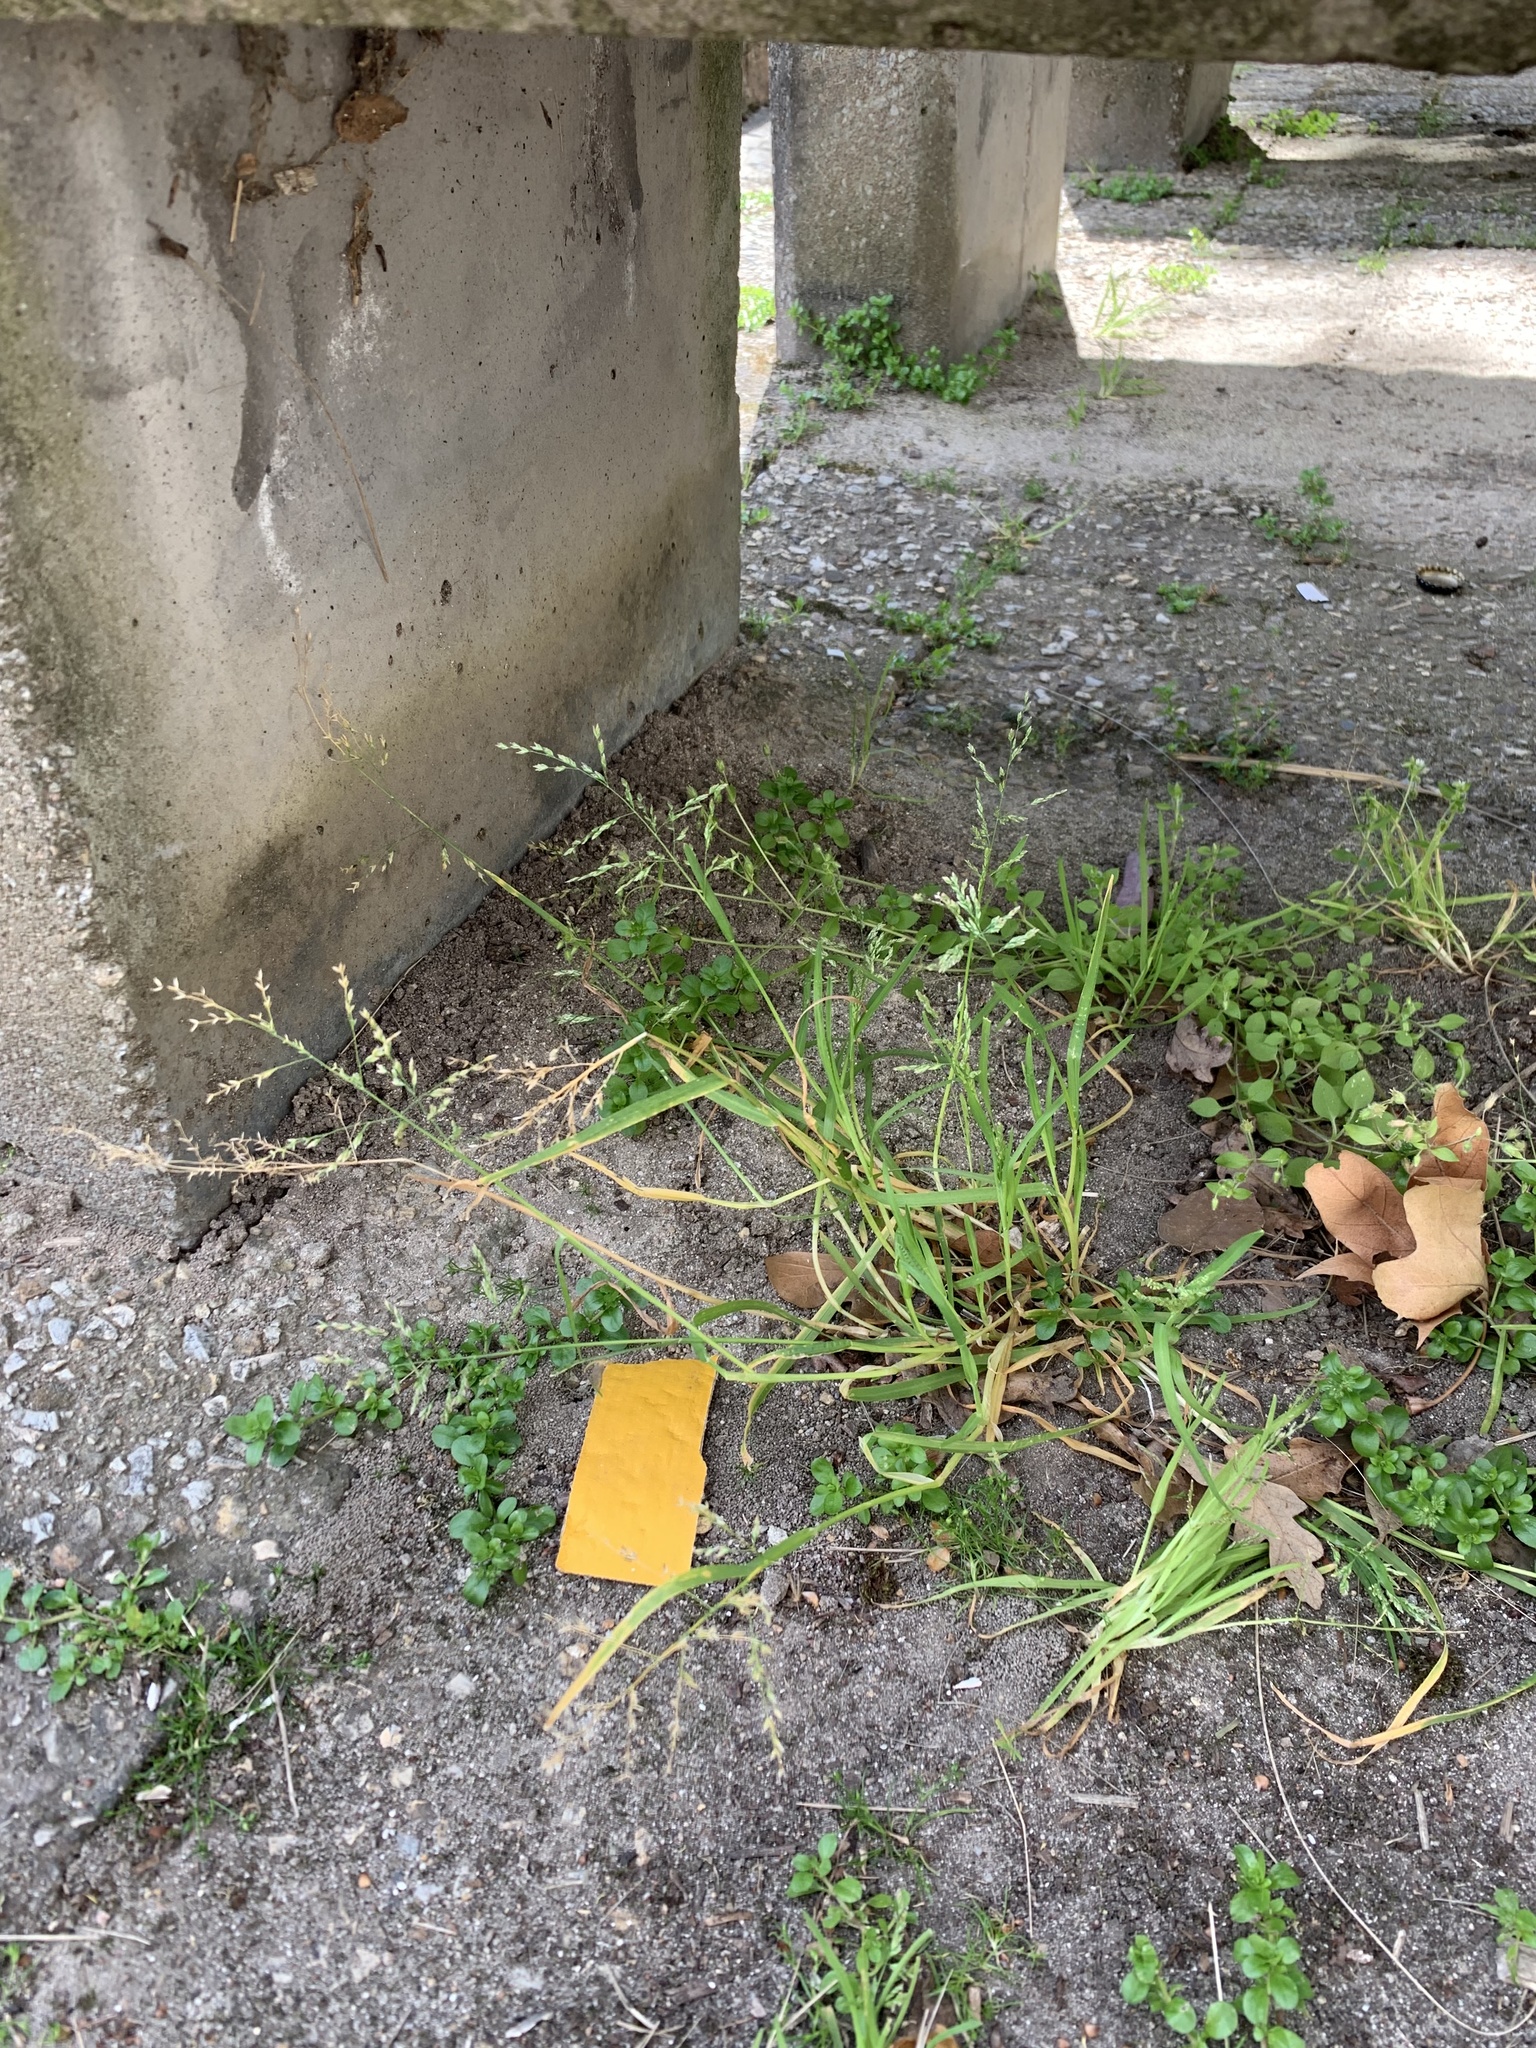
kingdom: Plantae
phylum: Tracheophyta
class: Liliopsida
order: Poales
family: Poaceae
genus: Poa
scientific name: Poa annua
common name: Annual bluegrass
